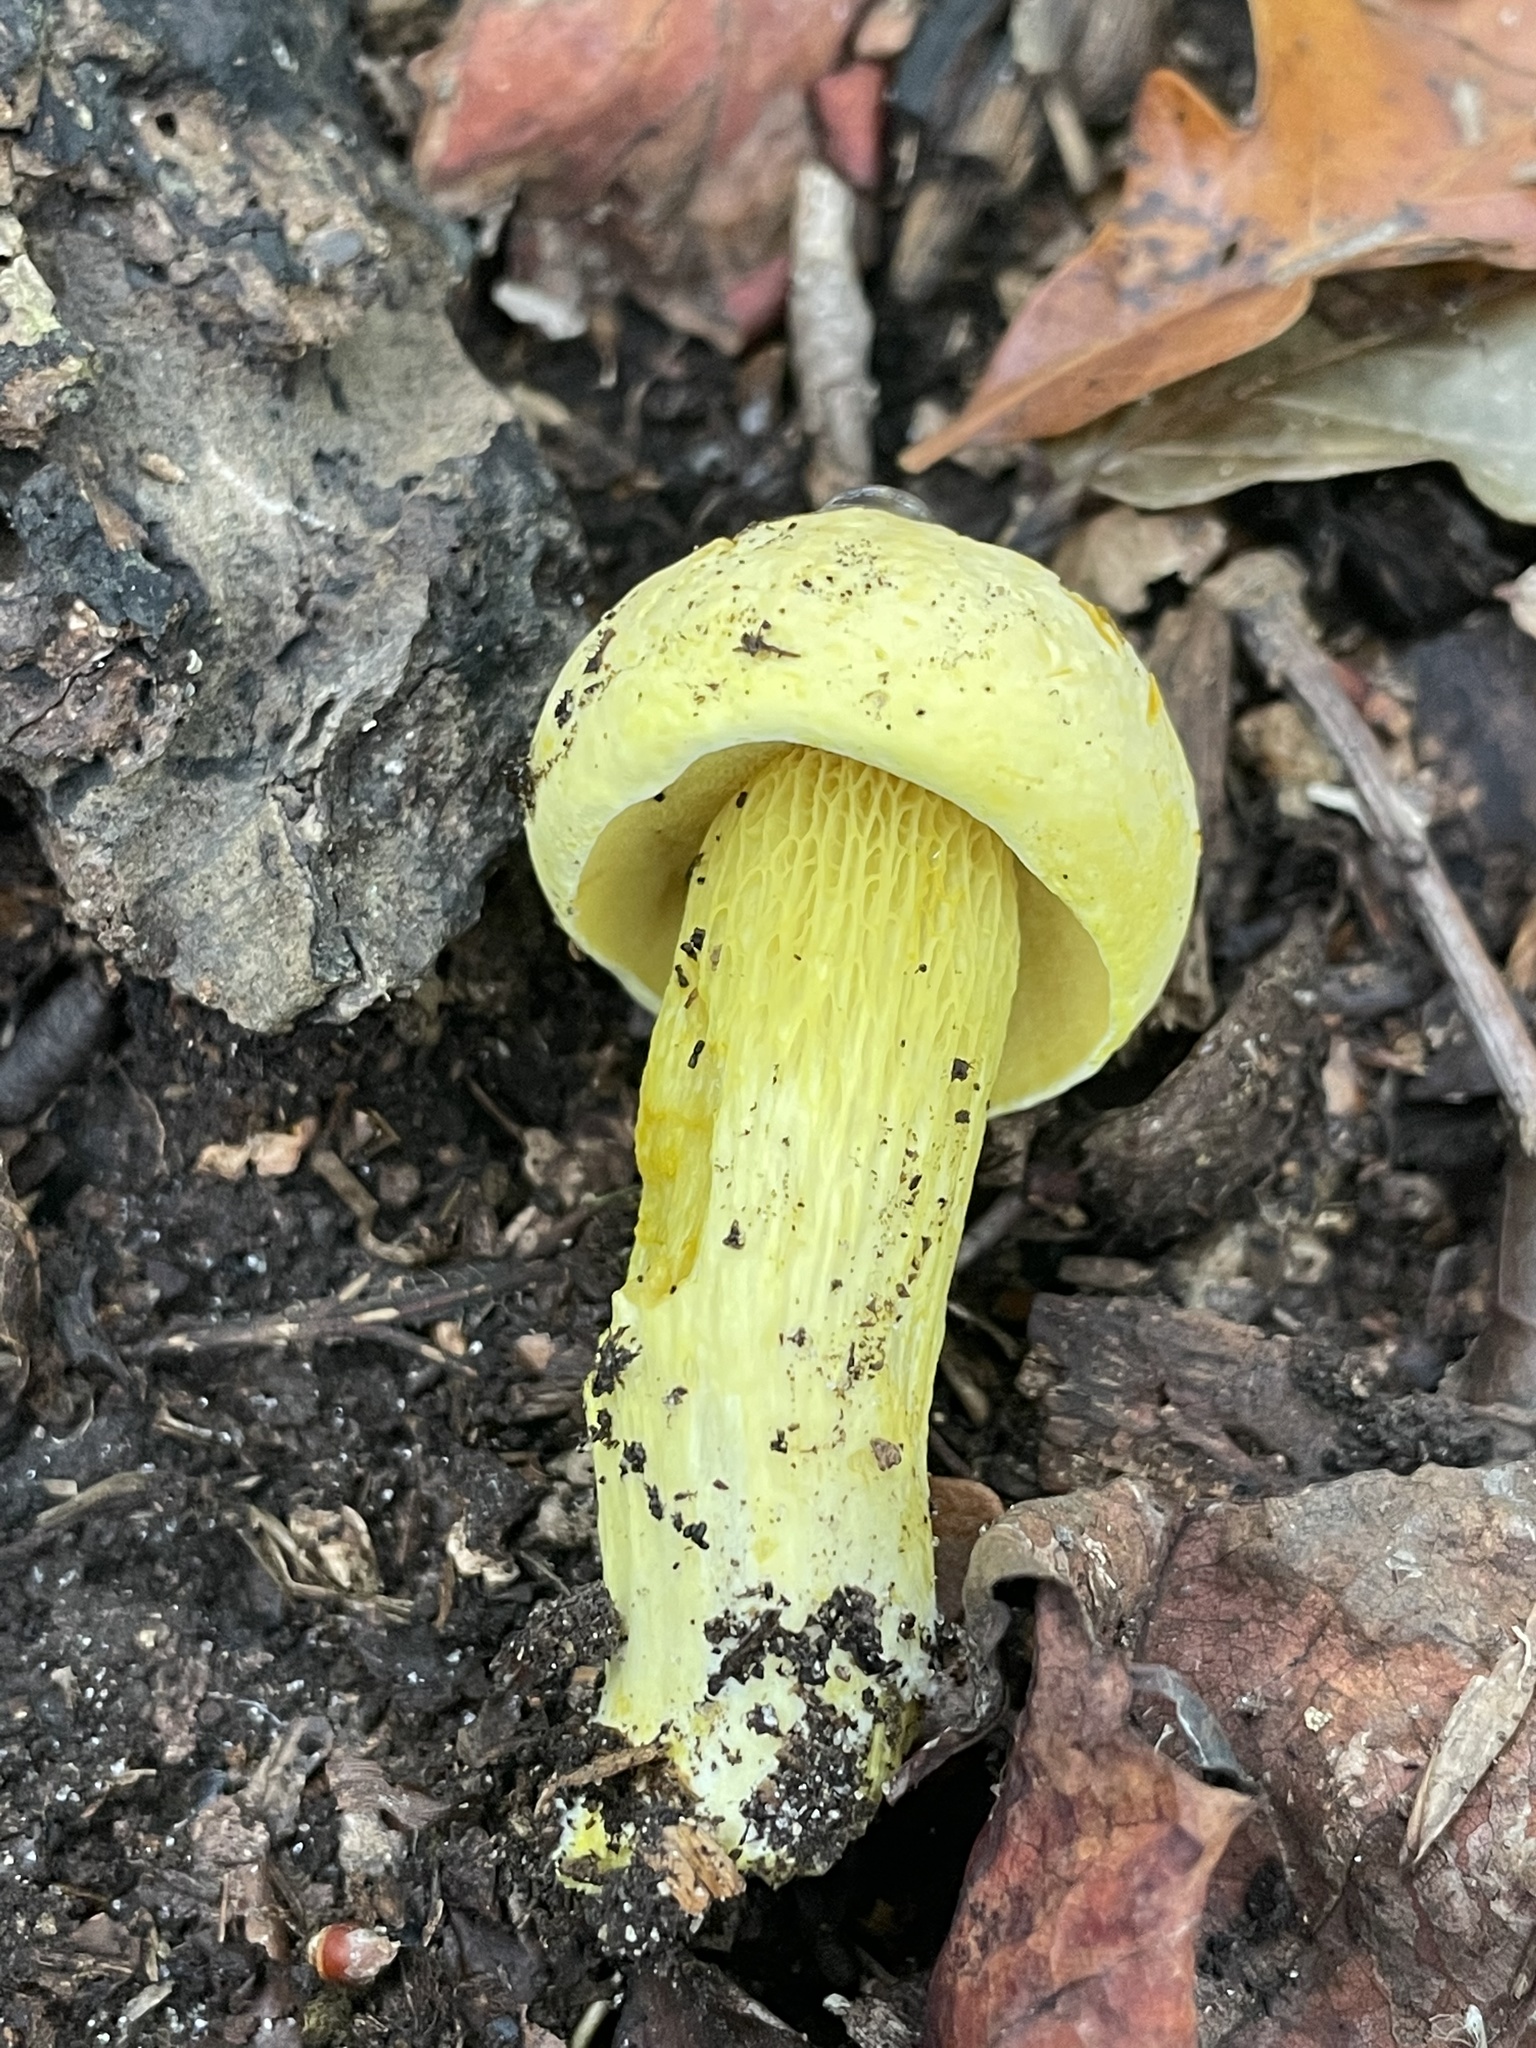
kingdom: Fungi
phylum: Basidiomycota
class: Agaricomycetes
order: Boletales
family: Boletaceae
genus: Retiboletus
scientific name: Retiboletus ornatipes
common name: Ornate-stalked bolete
